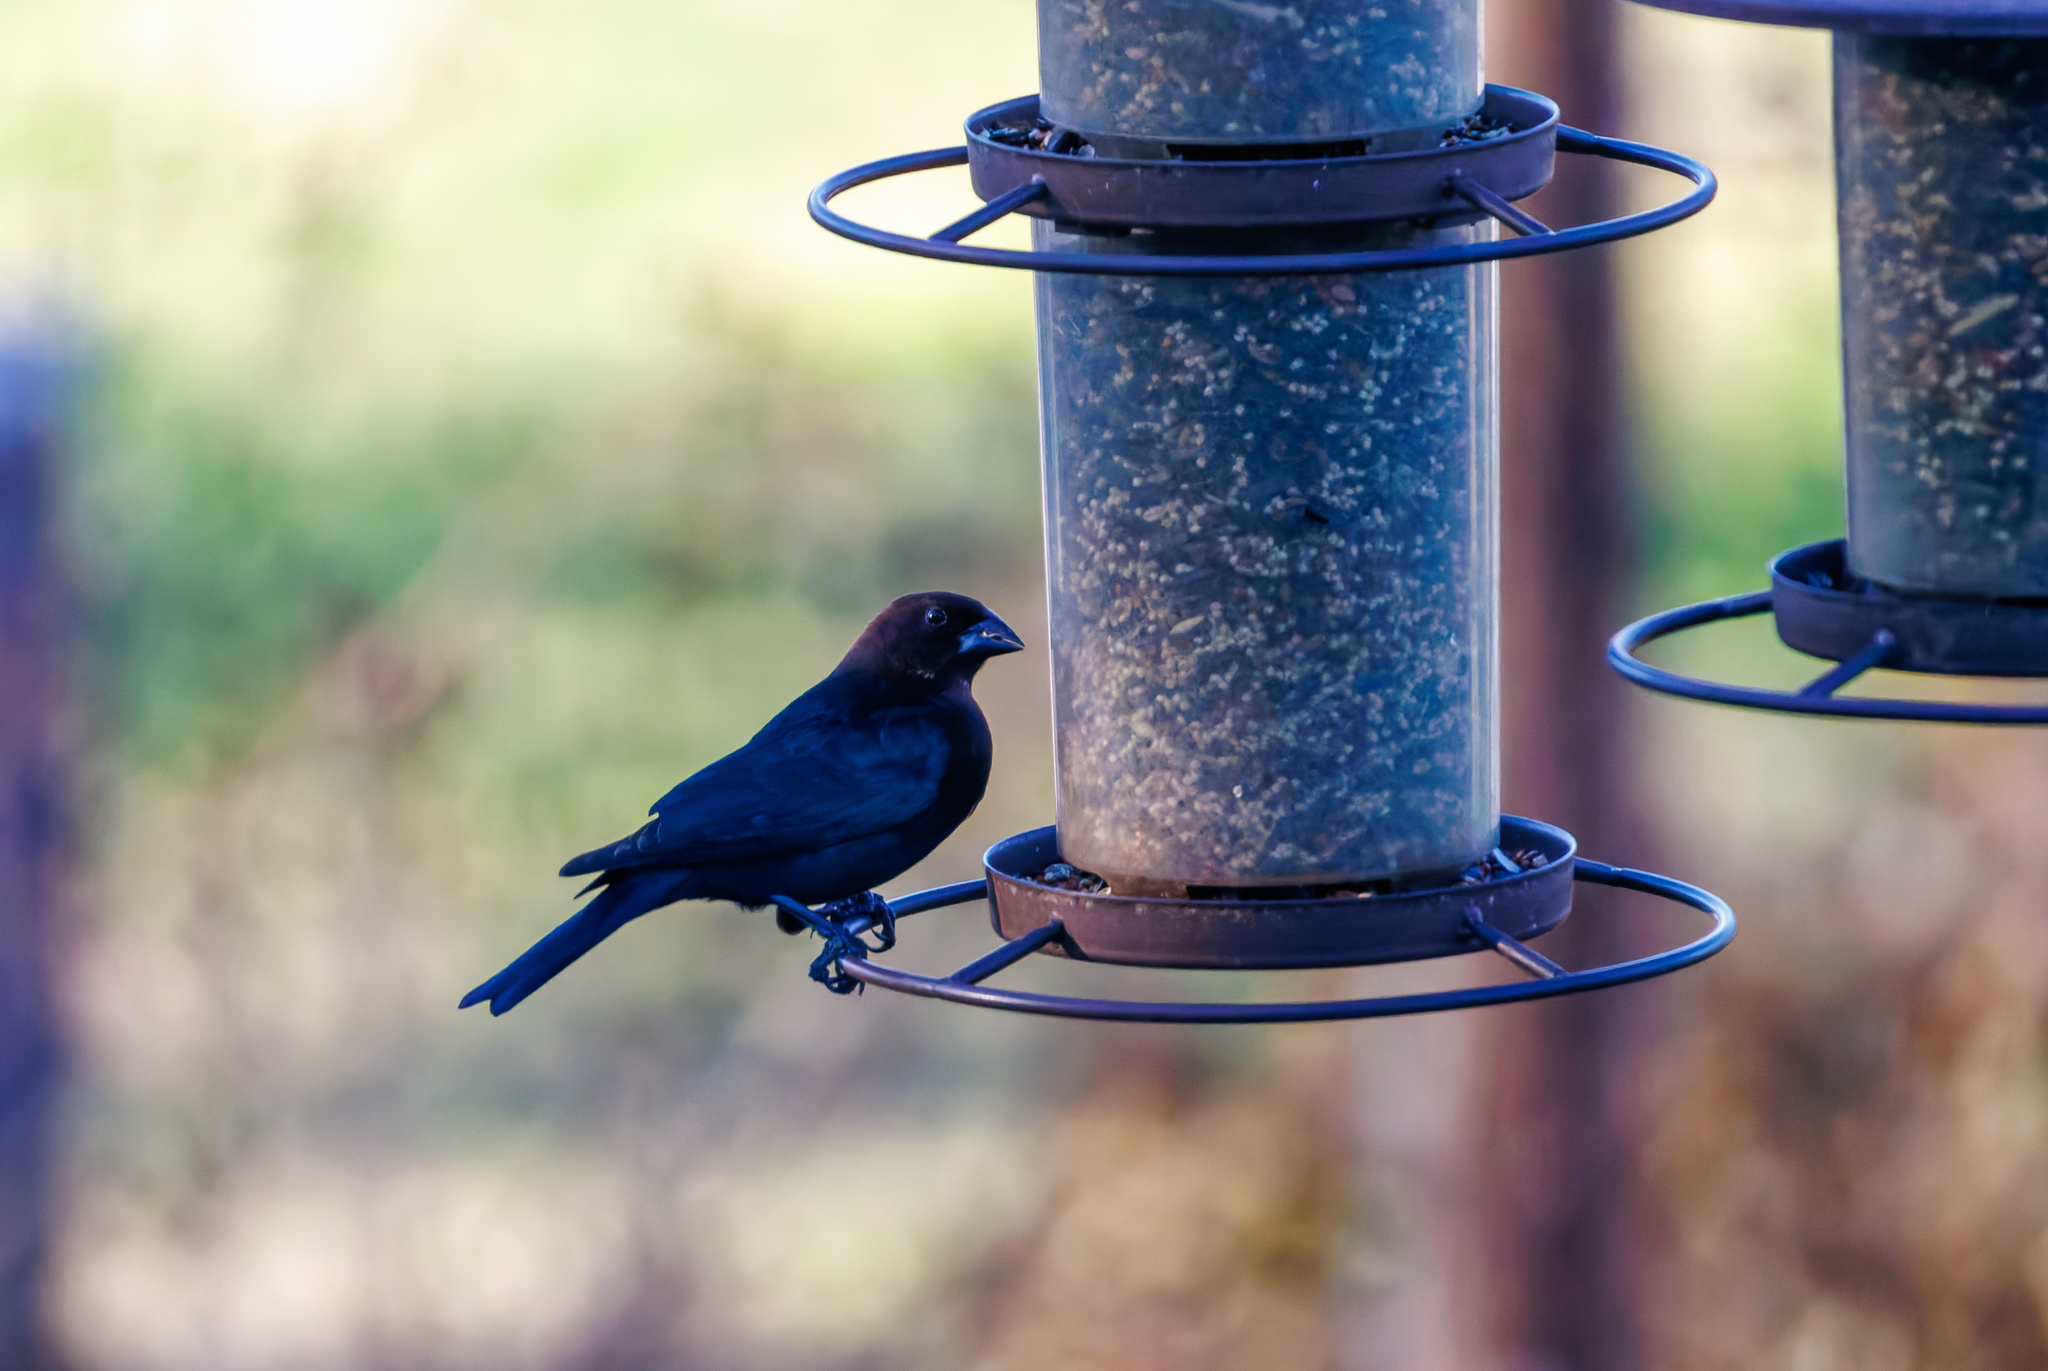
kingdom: Animalia
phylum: Chordata
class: Aves
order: Passeriformes
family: Icteridae
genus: Molothrus
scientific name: Molothrus ater
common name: Brown-headed cowbird
